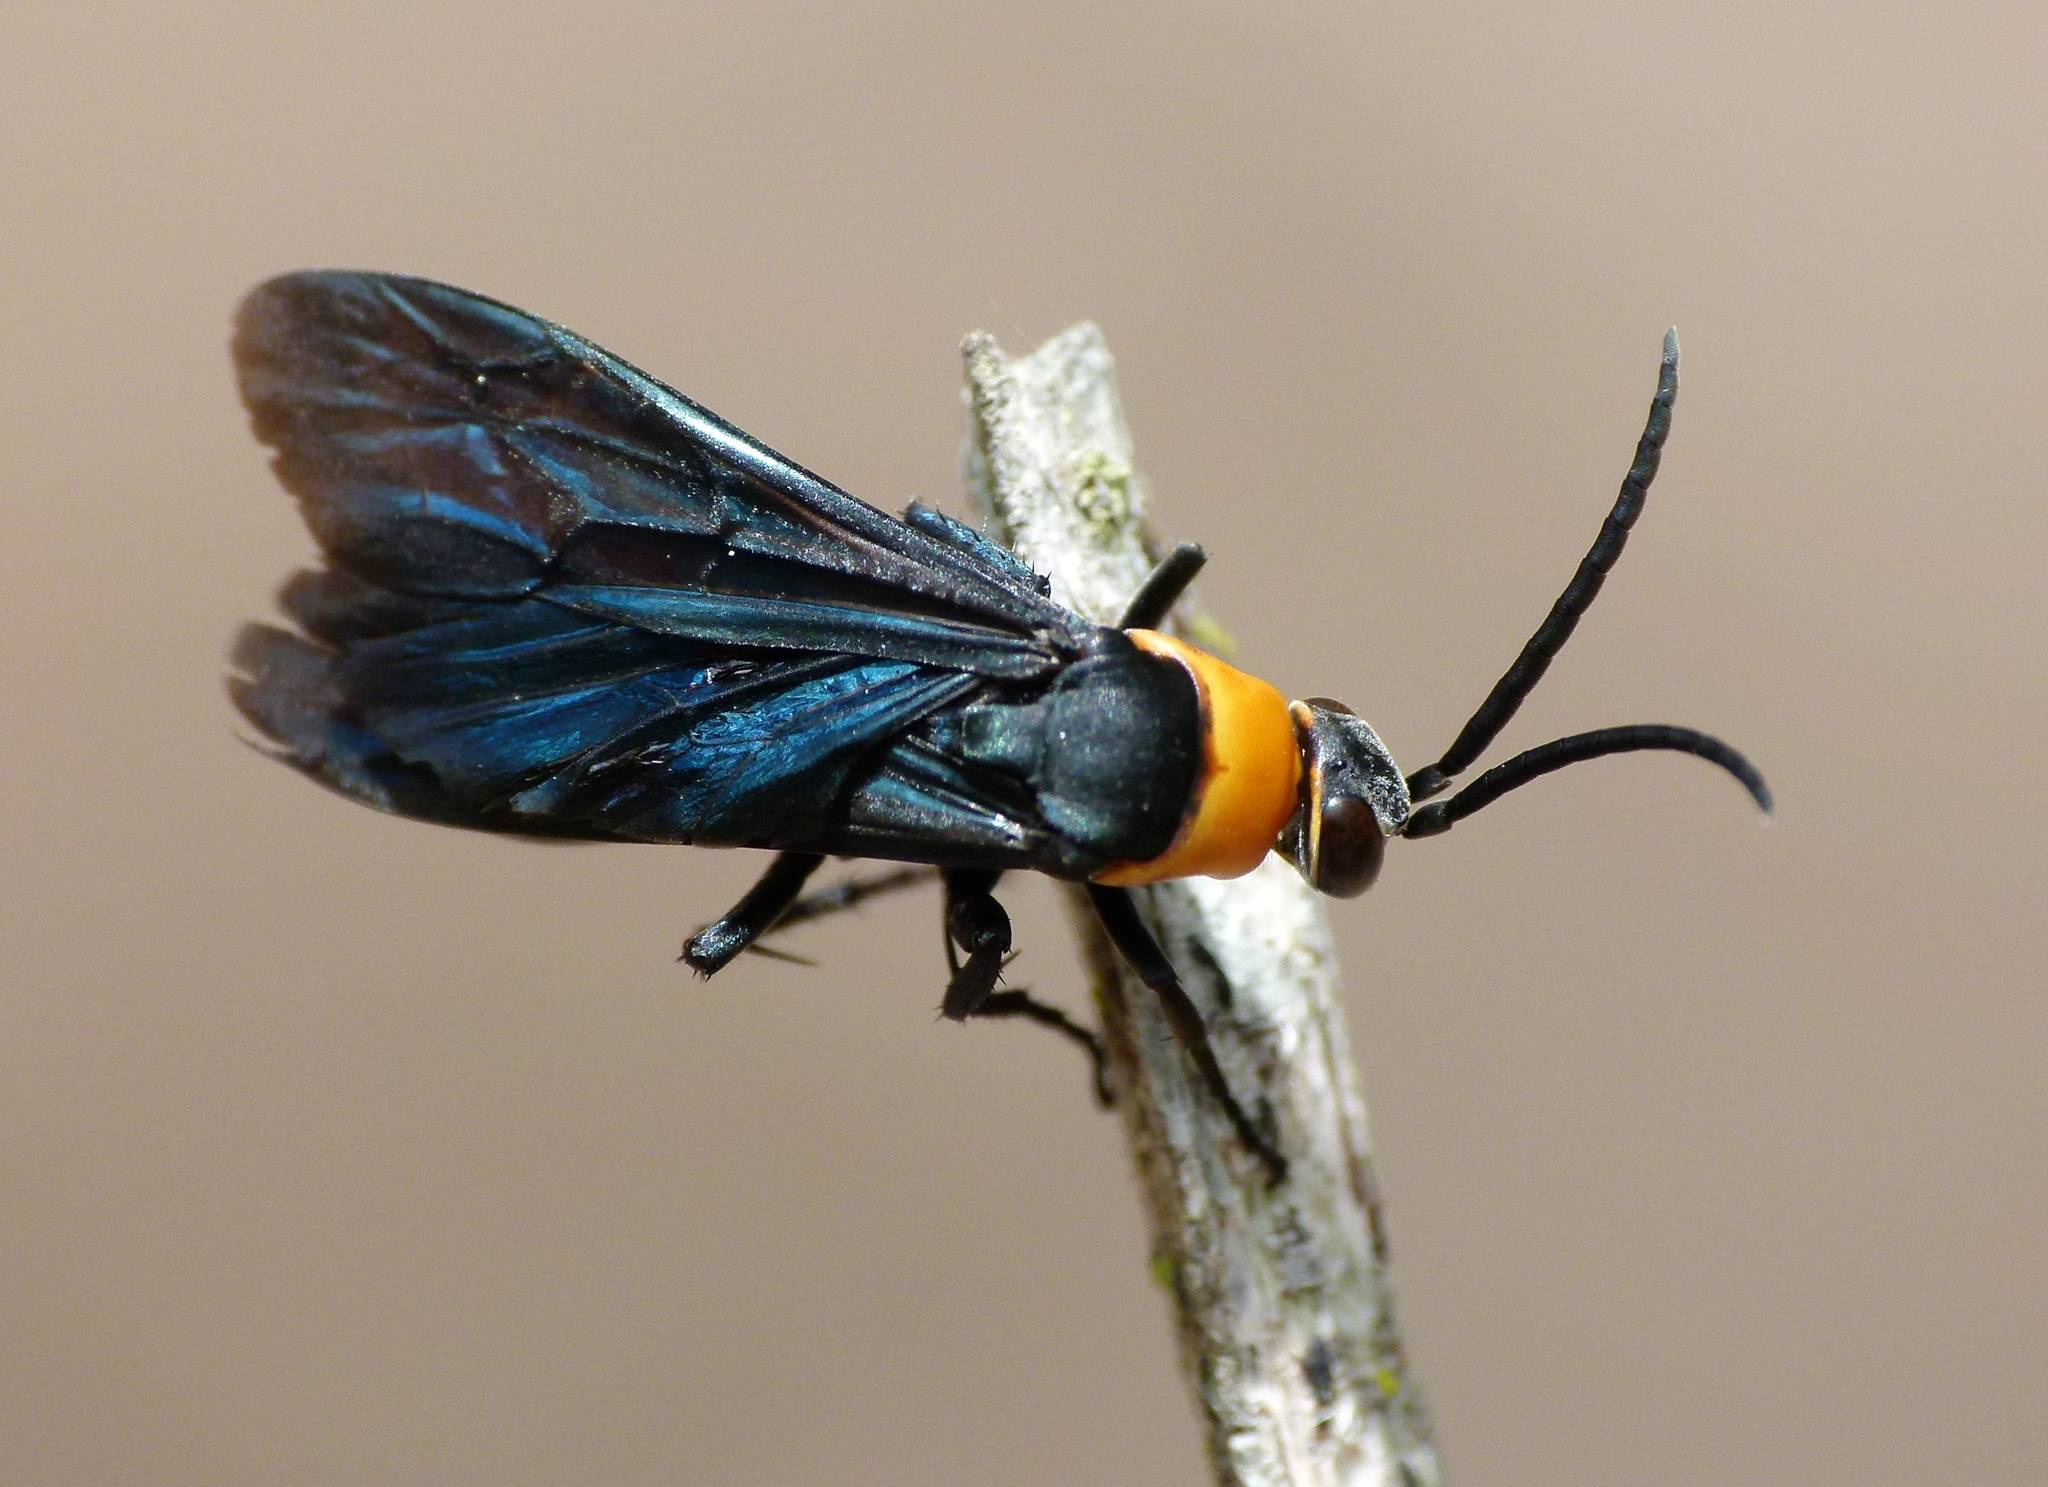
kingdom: Animalia
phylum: Arthropoda
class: Insecta
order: Hymenoptera
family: Pompilidae
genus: Ferreola
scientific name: Ferreola handschini
